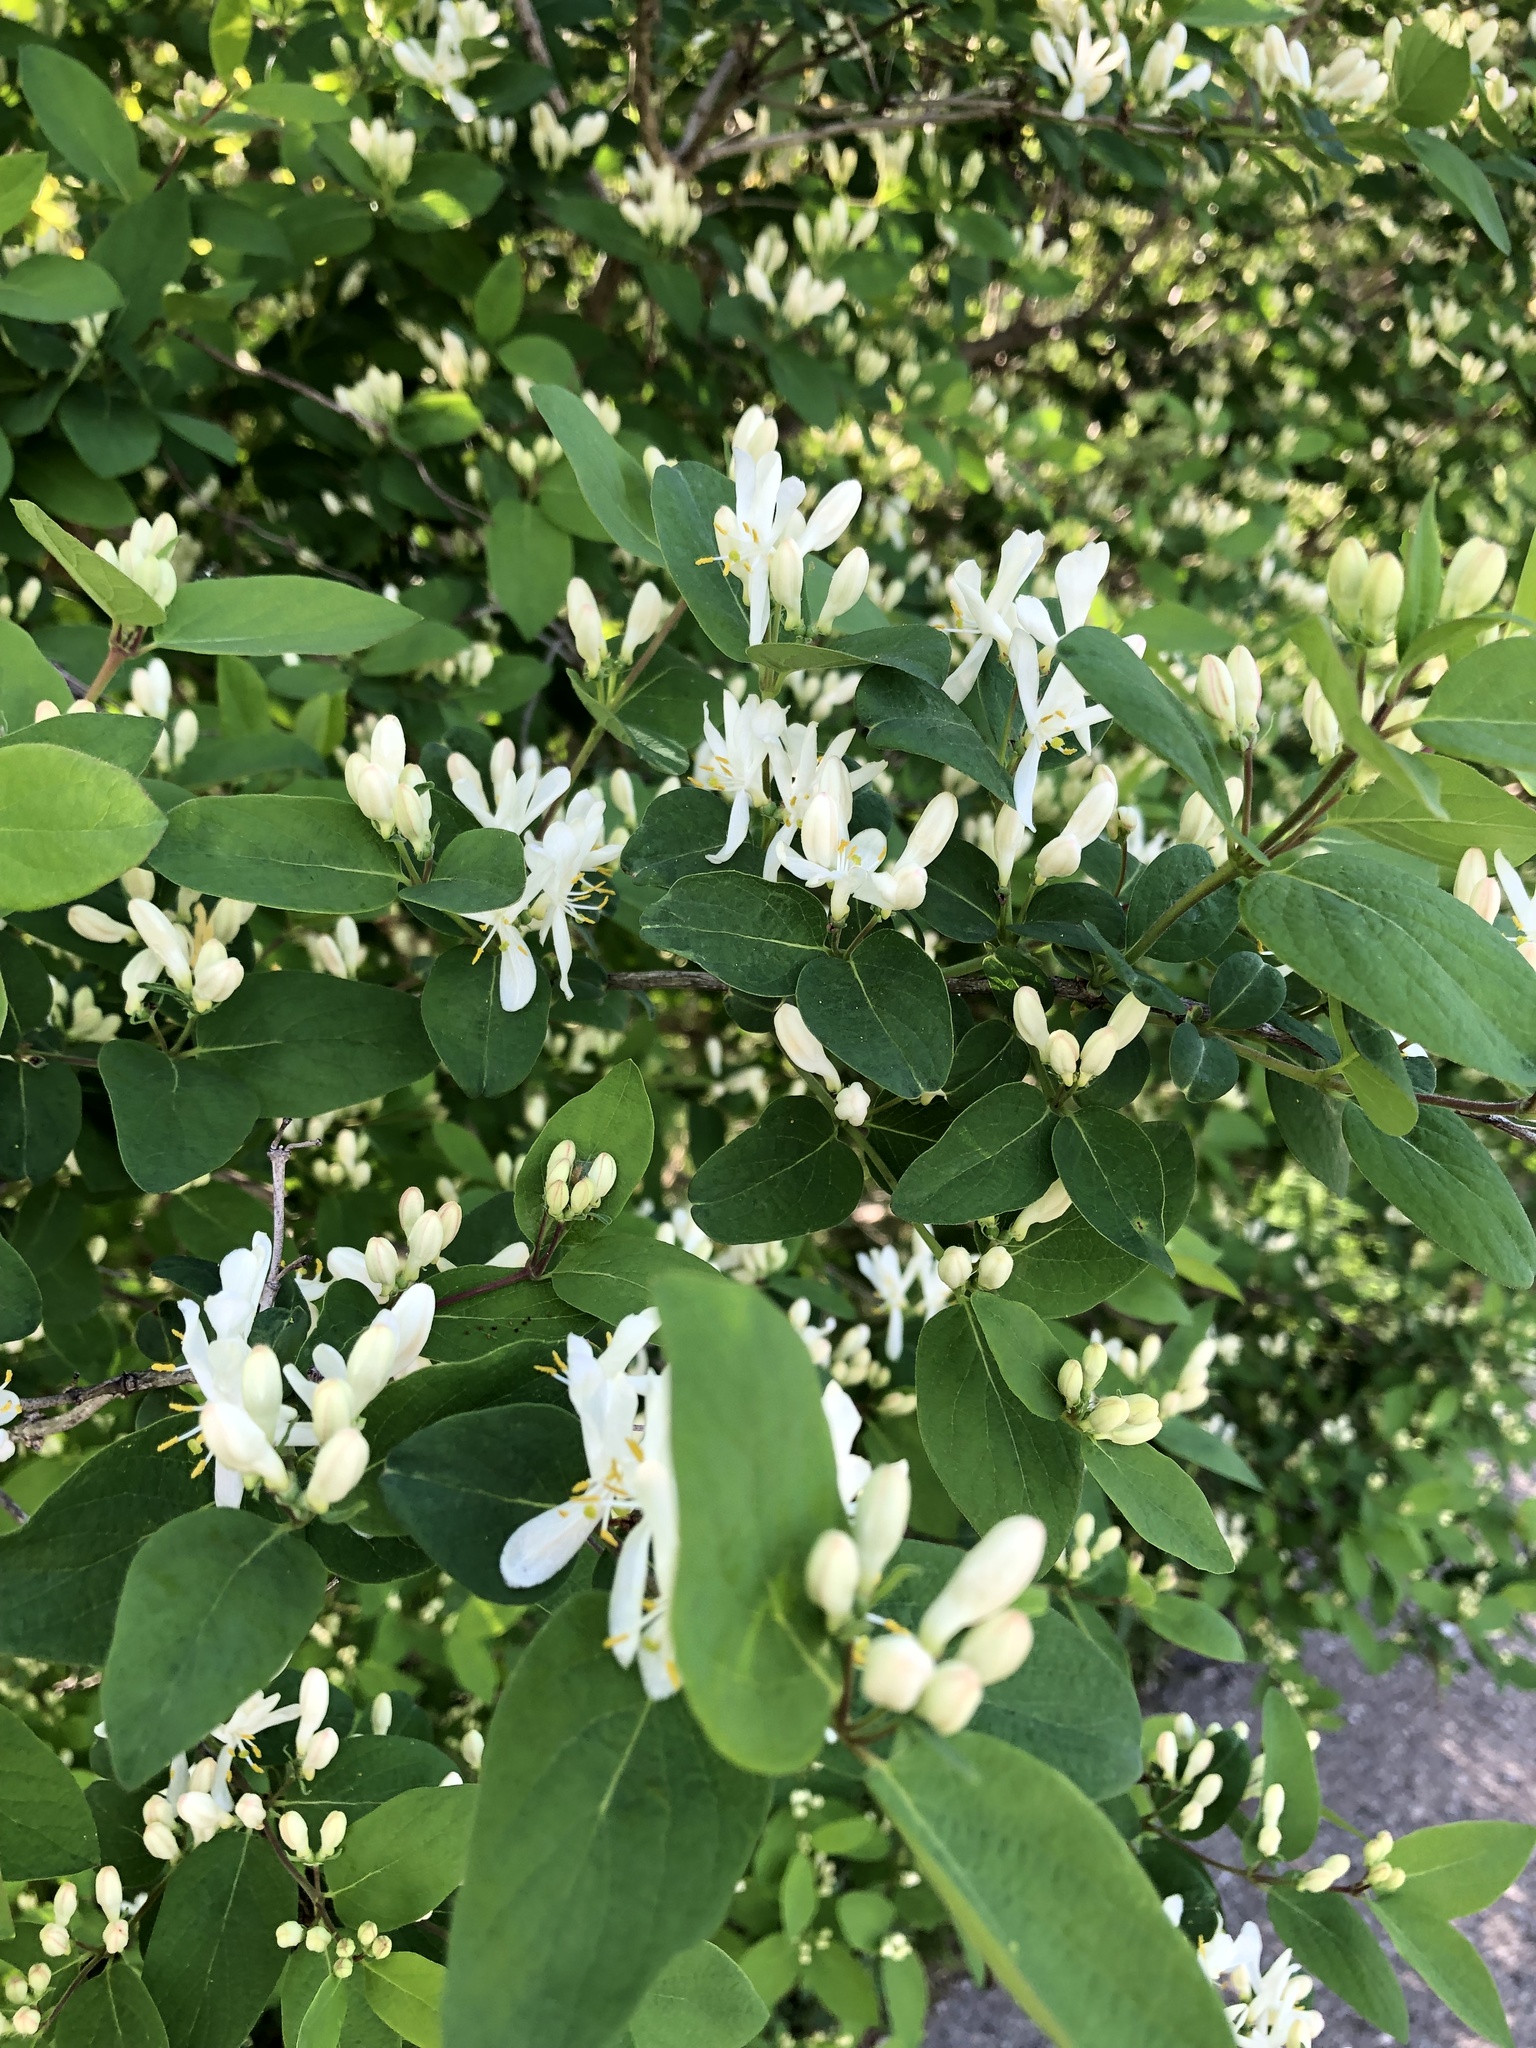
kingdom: Plantae
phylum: Tracheophyta
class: Magnoliopsida
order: Dipsacales
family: Caprifoliaceae
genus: Lonicera
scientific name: Lonicera morrowii
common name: Morrow's honeysuckle
